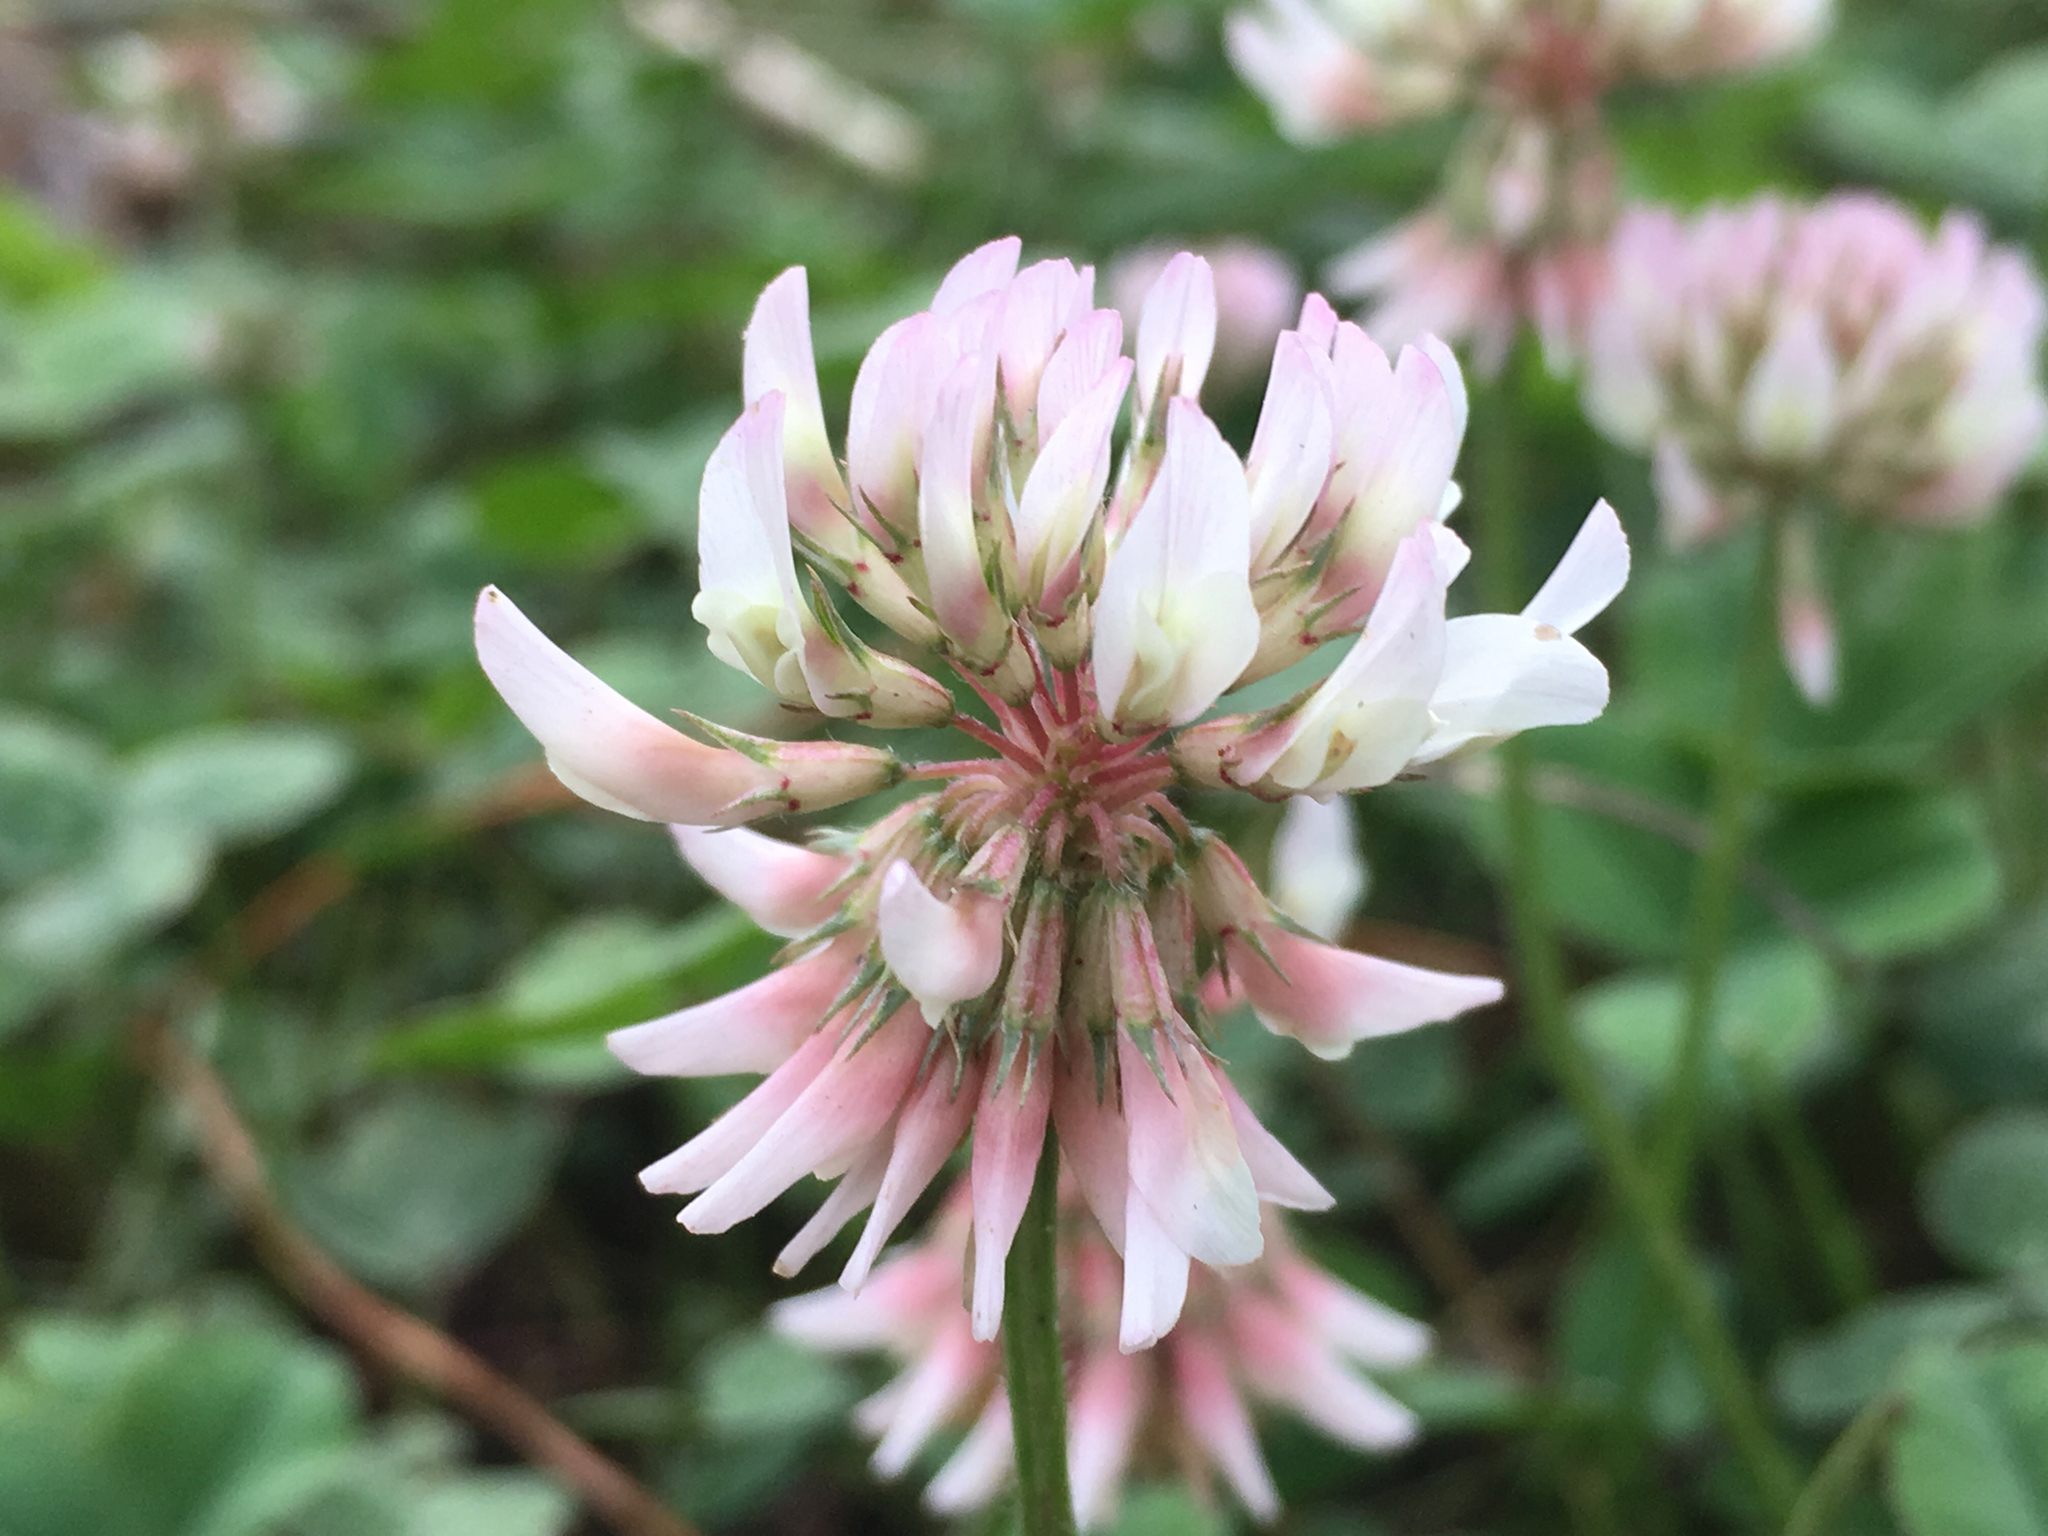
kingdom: Plantae
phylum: Tracheophyta
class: Magnoliopsida
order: Fabales
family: Fabaceae
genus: Trifolium
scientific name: Trifolium repens
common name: White clover
